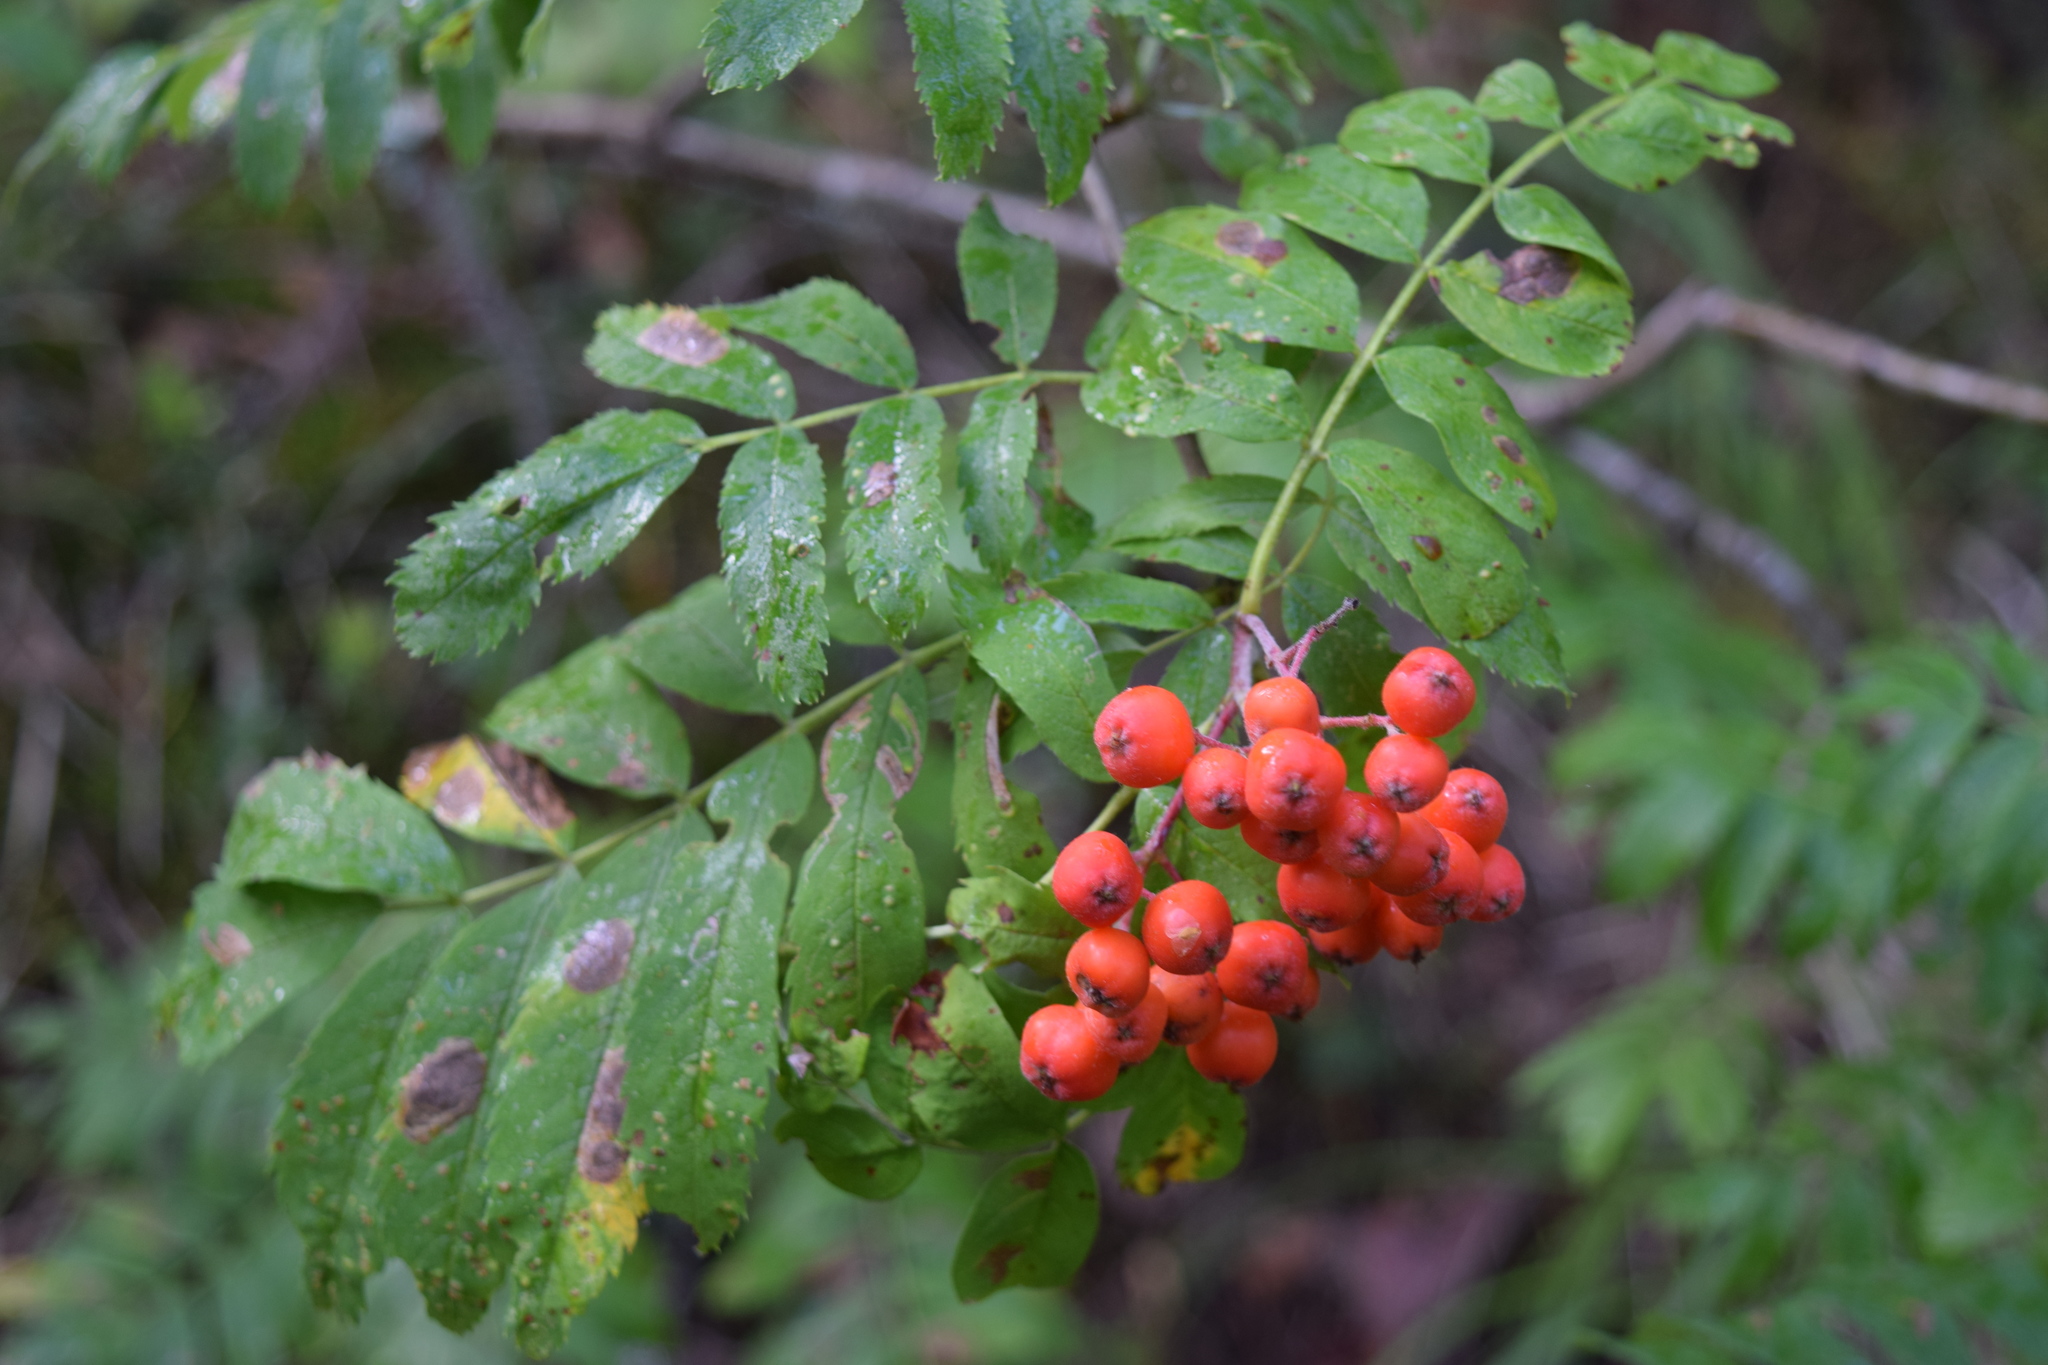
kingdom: Plantae
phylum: Tracheophyta
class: Magnoliopsida
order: Rosales
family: Rosaceae
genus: Sorbus
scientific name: Sorbus aucuparia
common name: Rowan
